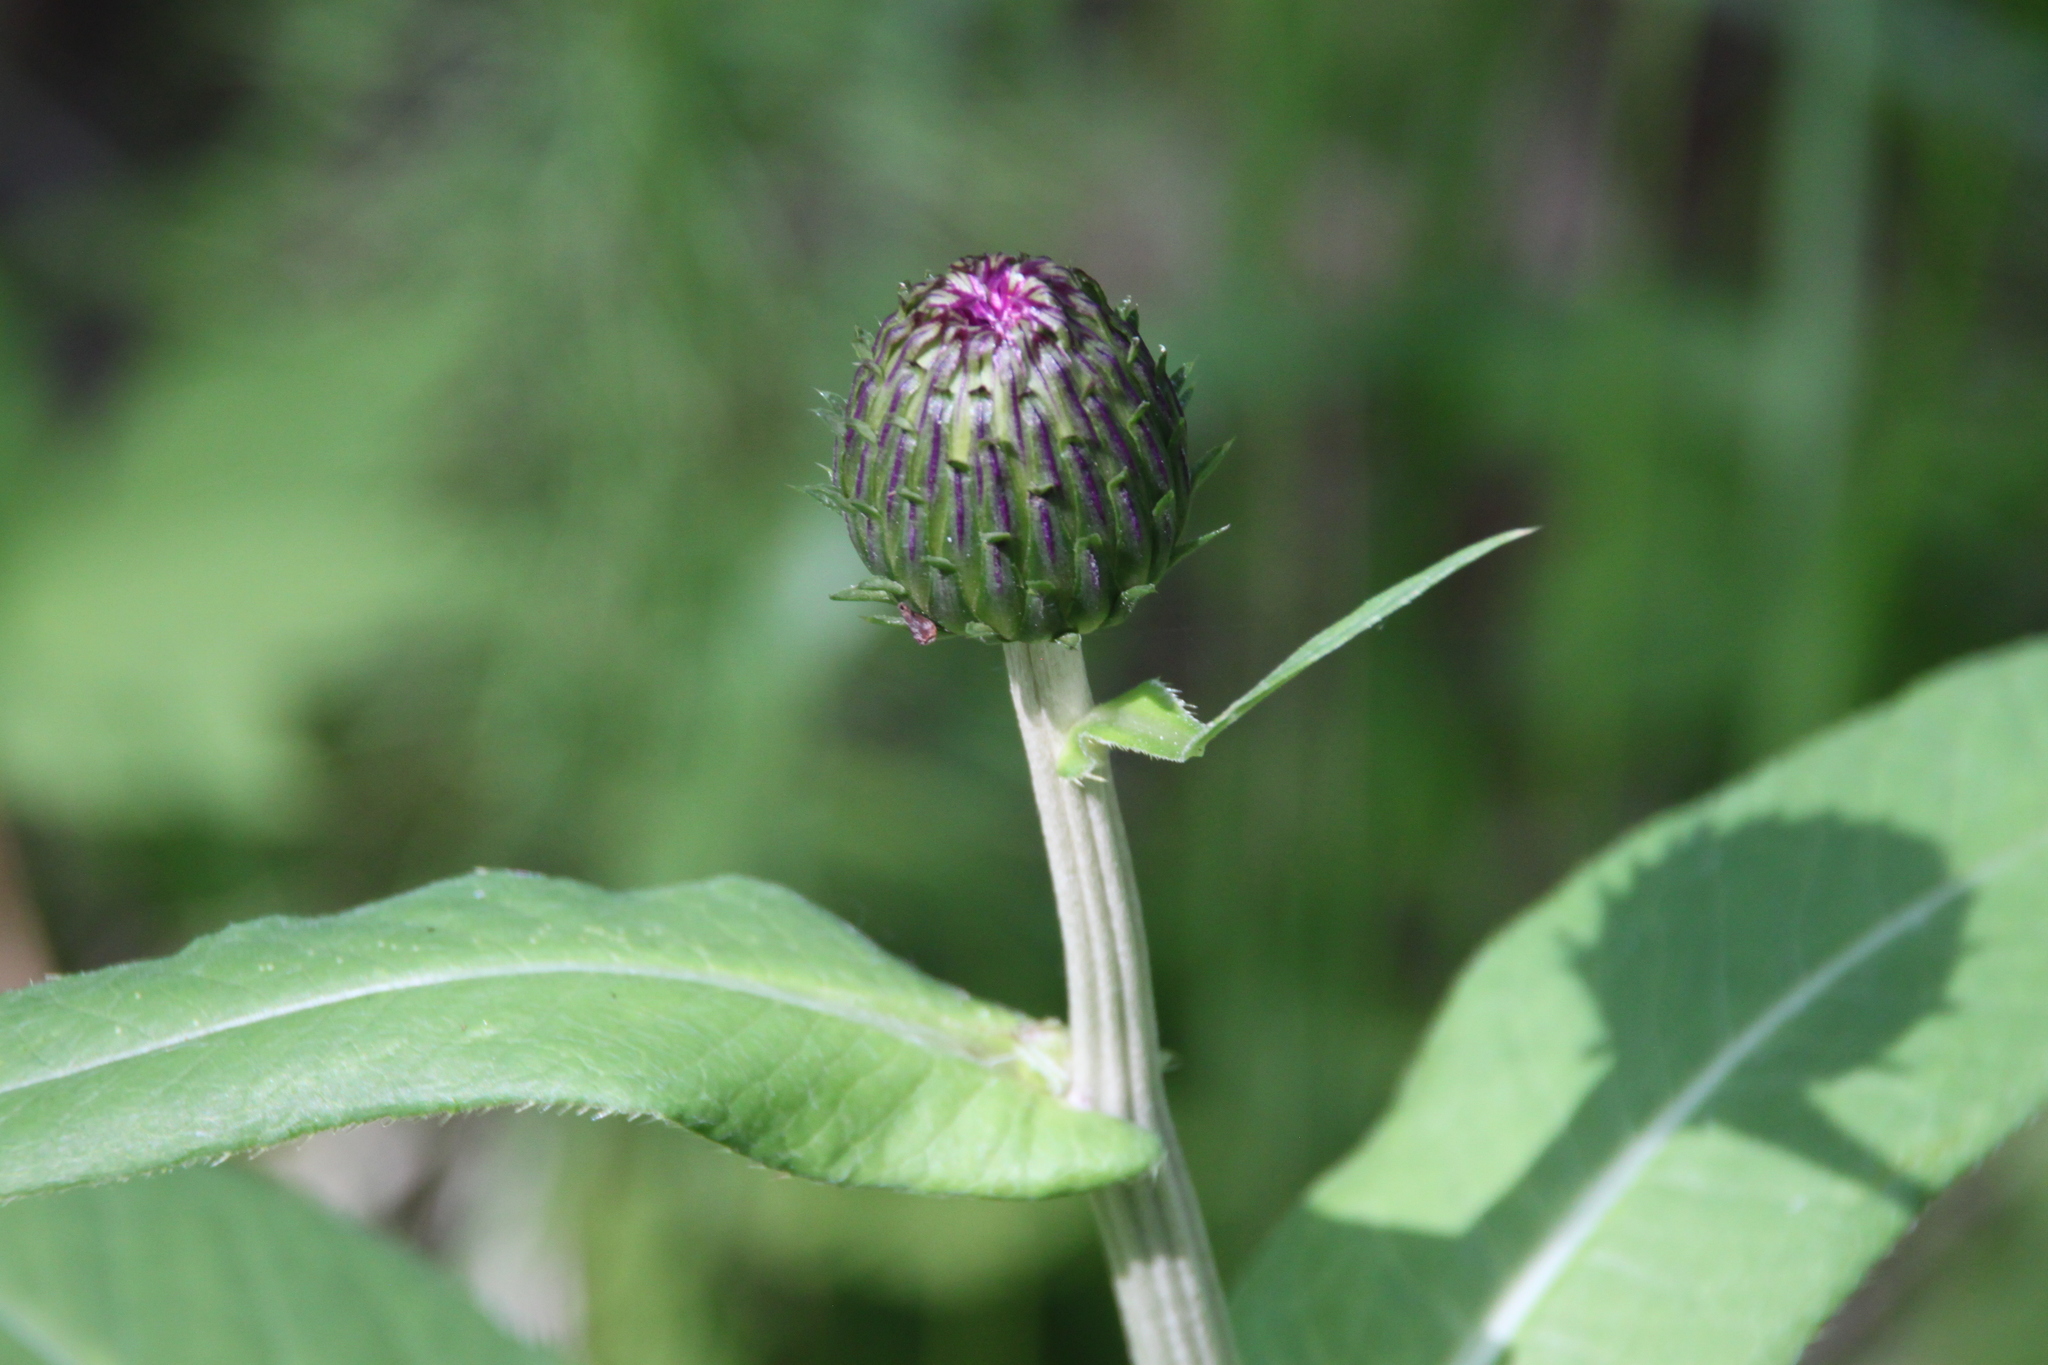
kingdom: Plantae
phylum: Tracheophyta
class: Magnoliopsida
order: Asterales
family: Asteraceae
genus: Cirsium
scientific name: Cirsium heterophyllum
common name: Melancholy thistle
